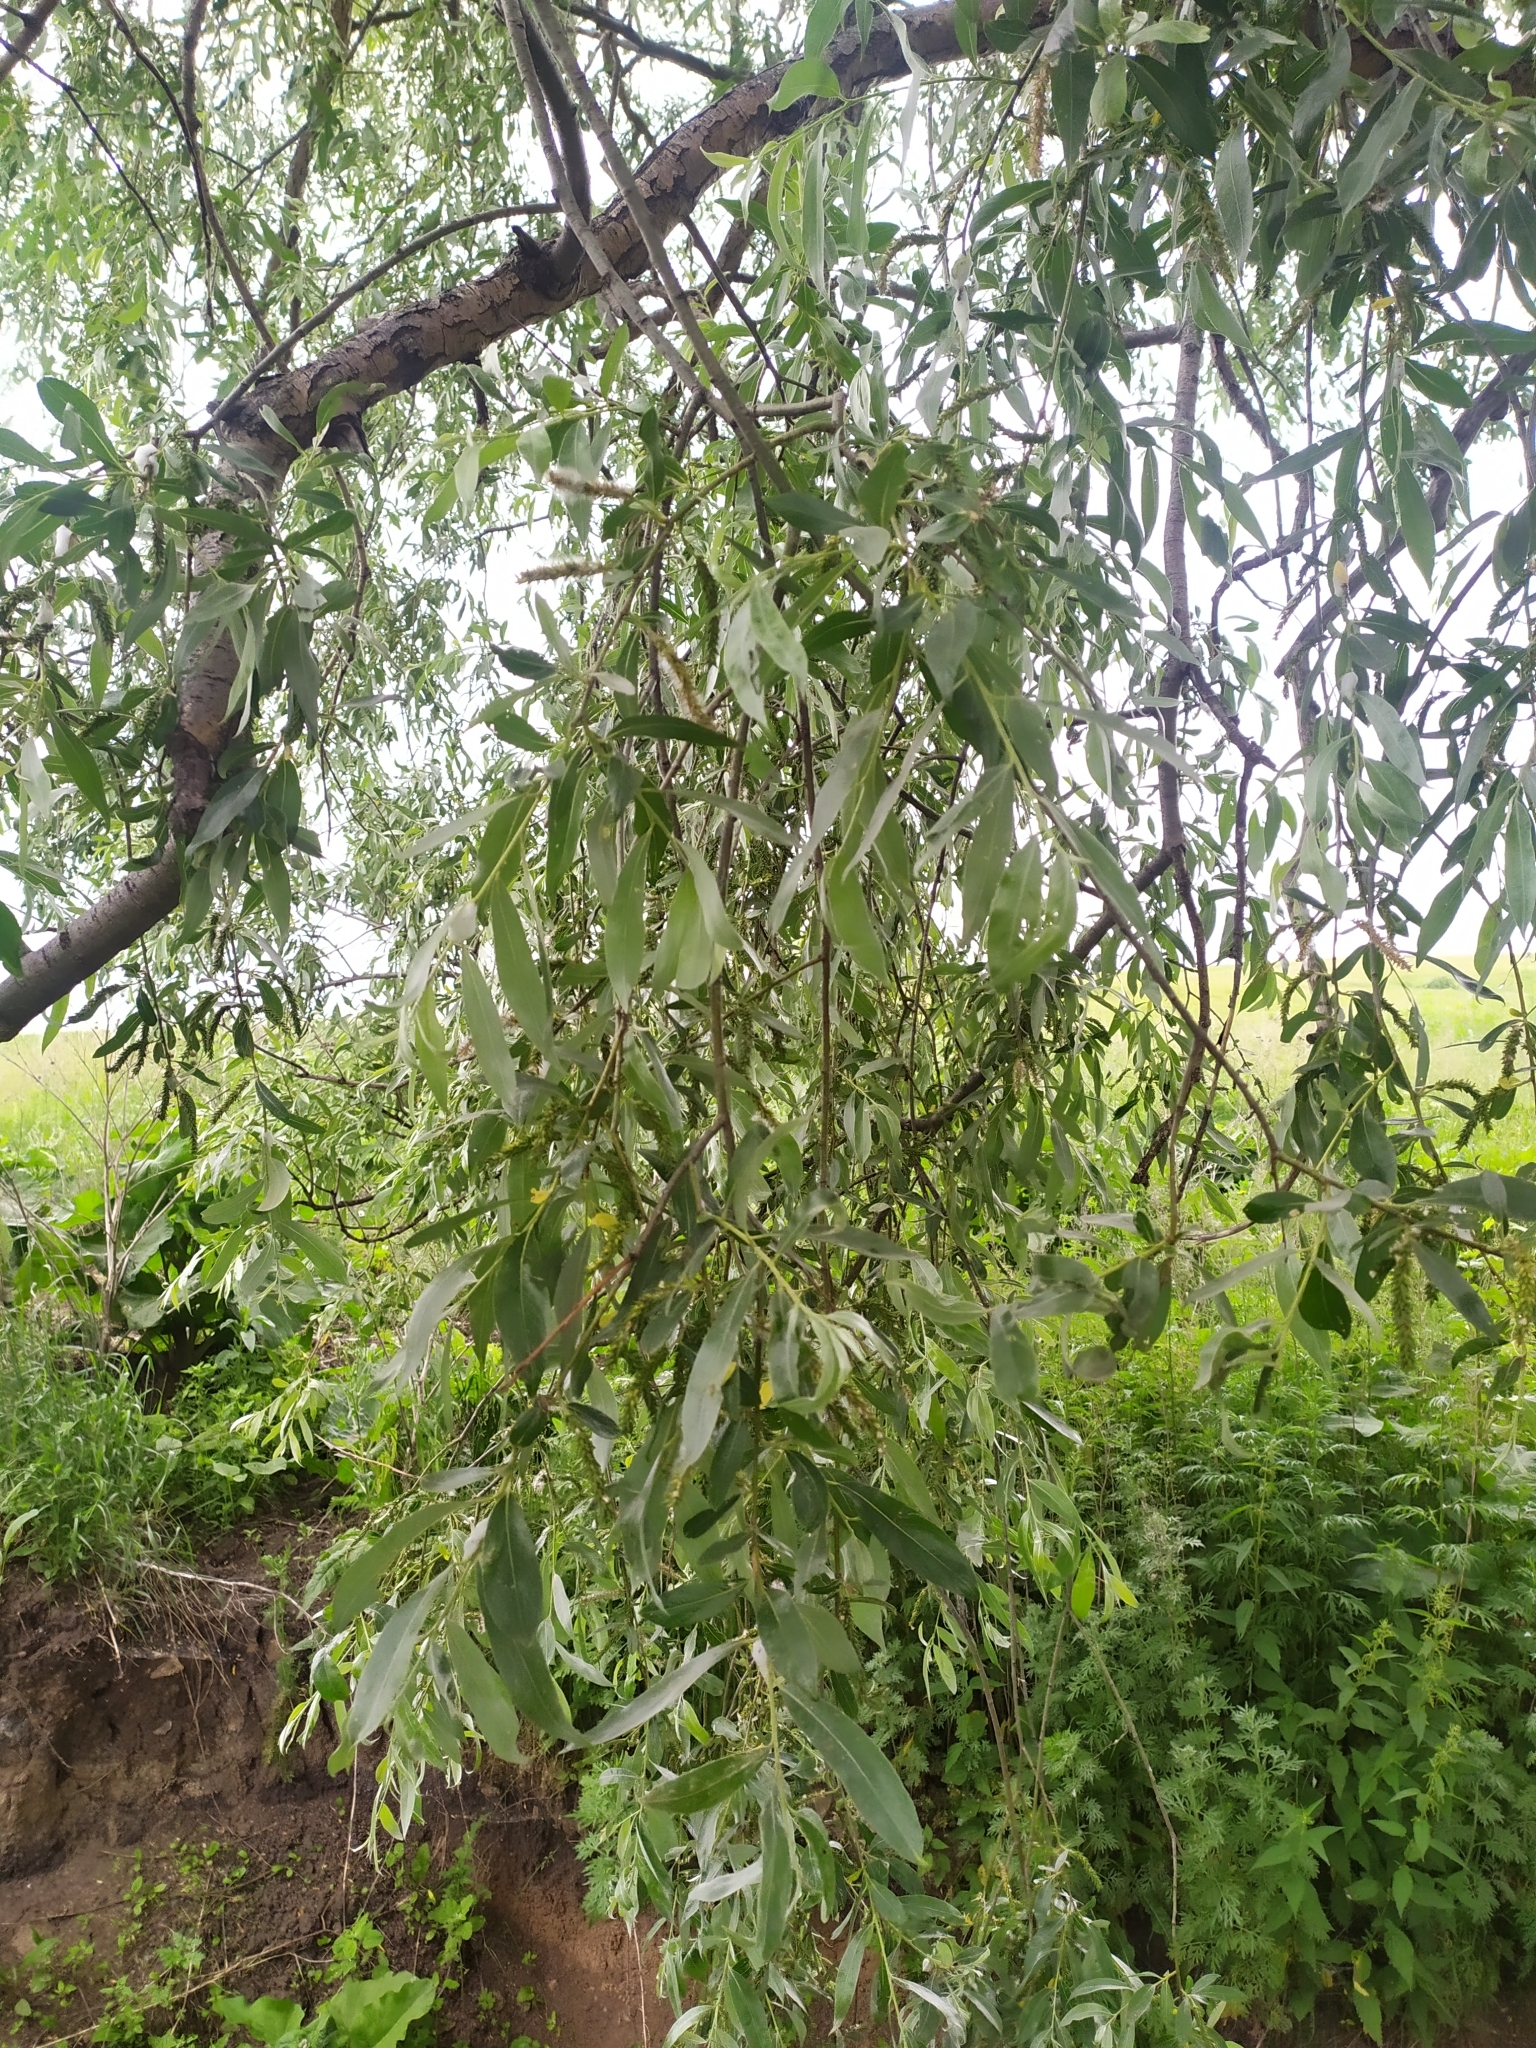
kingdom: Plantae
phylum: Tracheophyta
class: Magnoliopsida
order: Malpighiales
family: Salicaceae
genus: Salix
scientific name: Salix alba
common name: White willow
